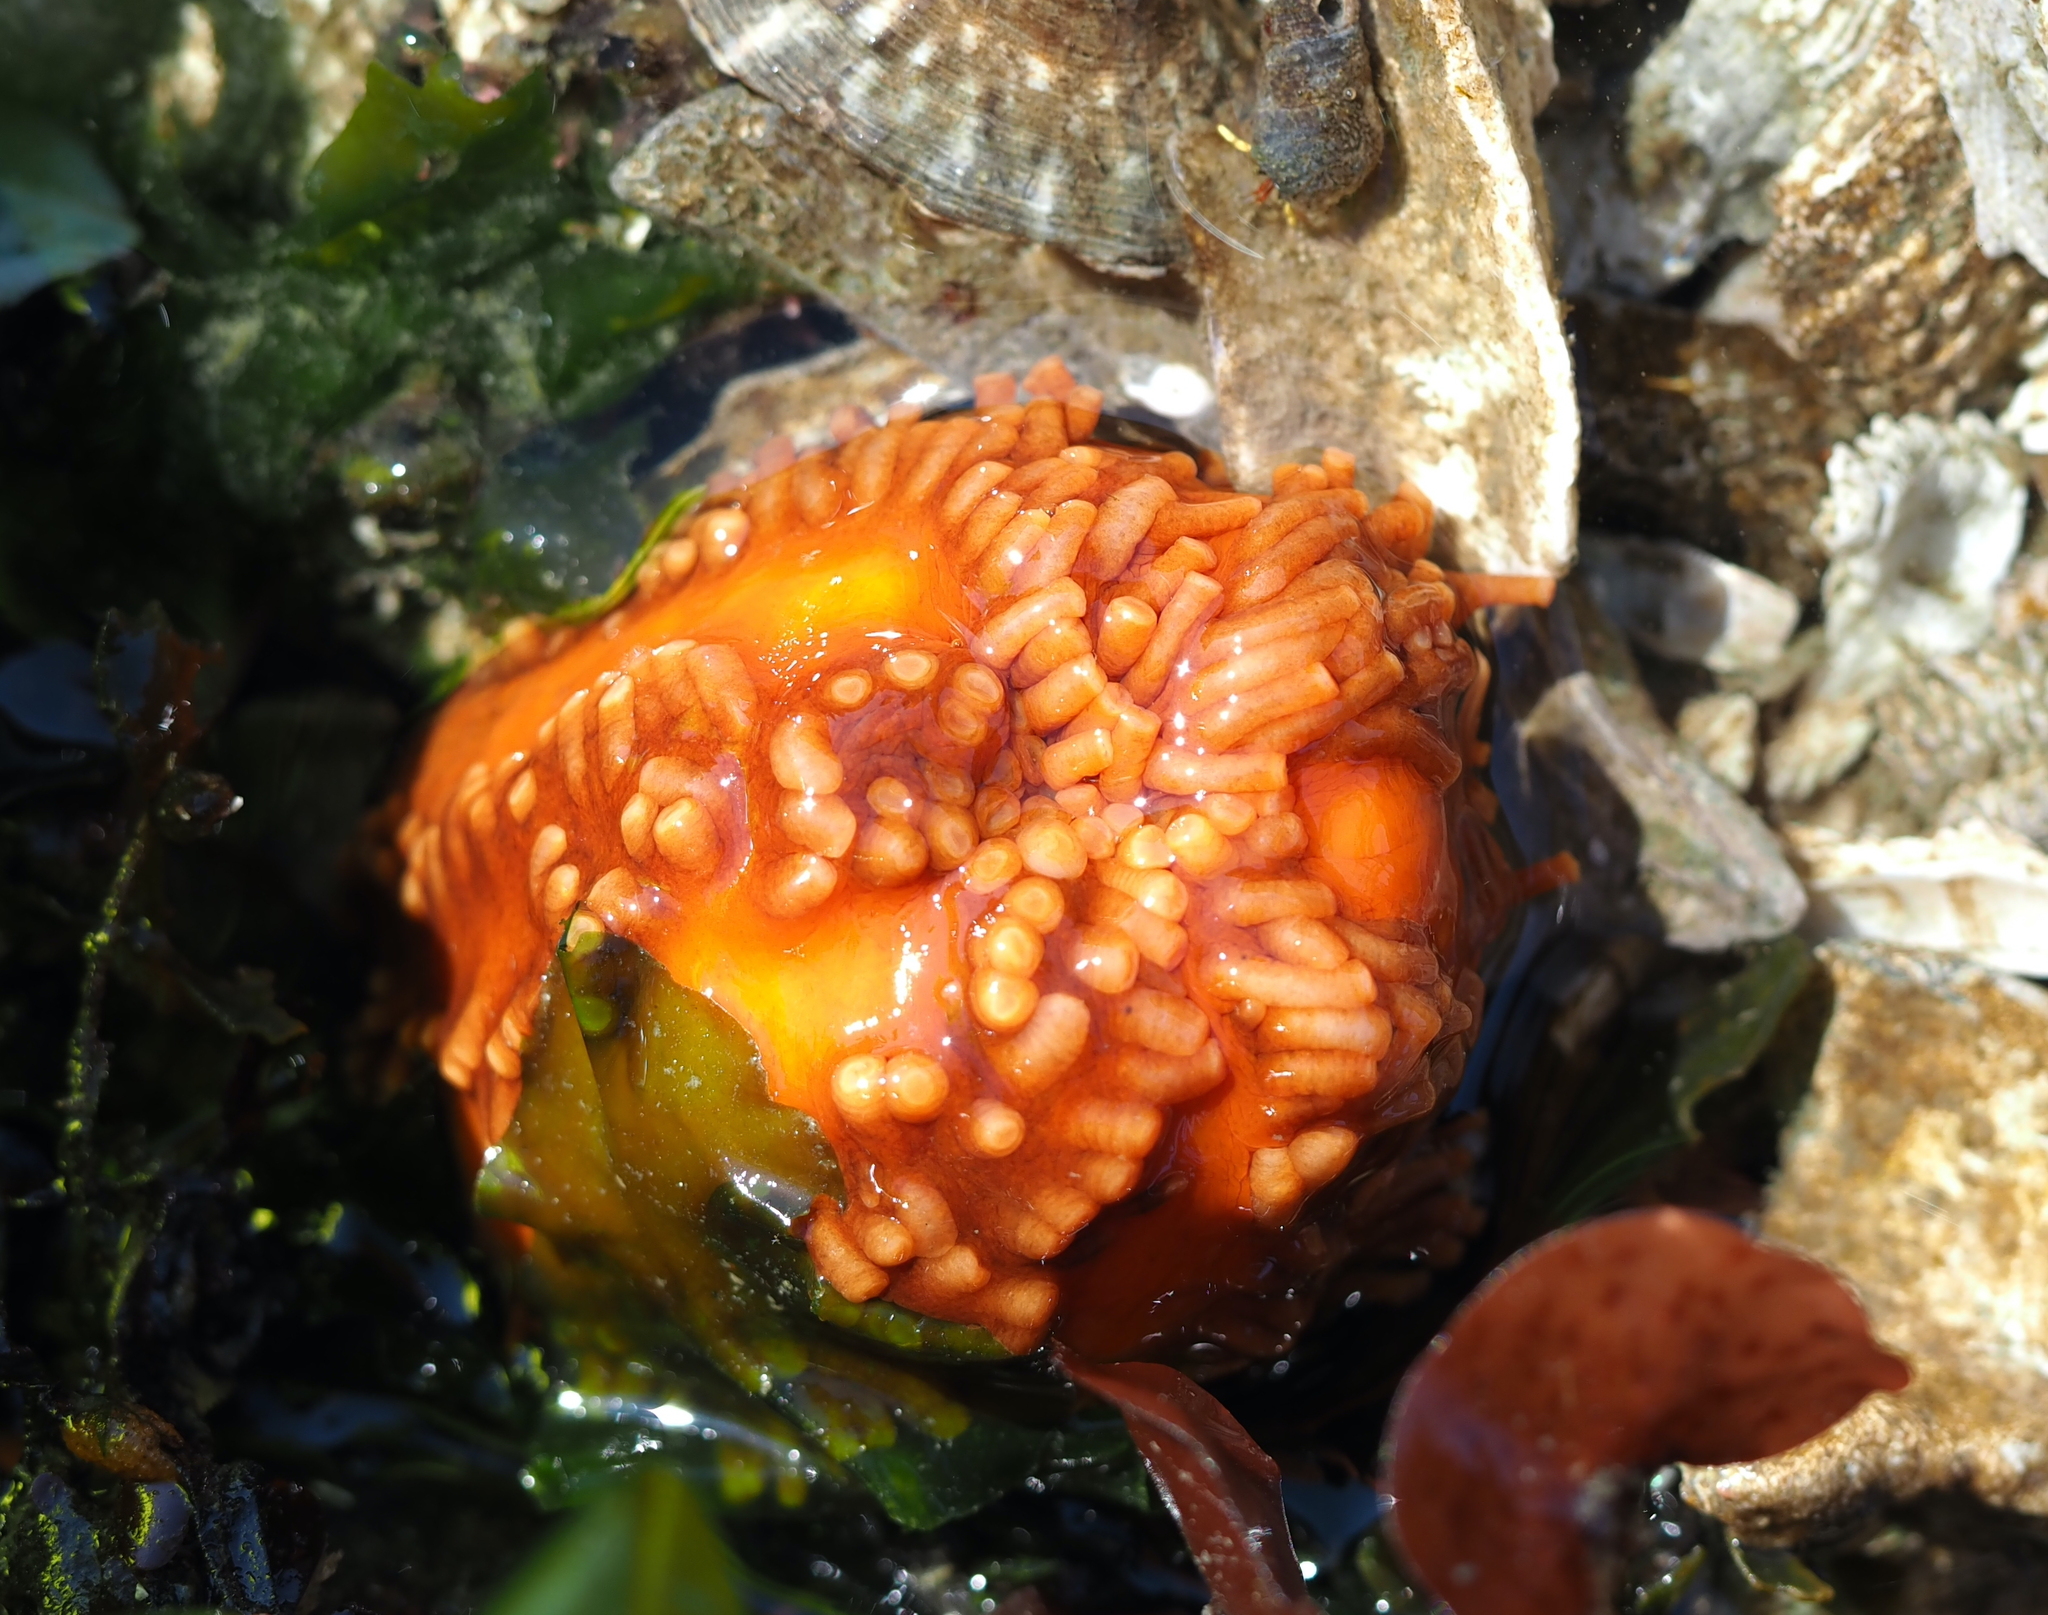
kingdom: Animalia
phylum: Echinodermata
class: Holothuroidea
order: Dendrochirotida
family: Cucumariidae
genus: Cucumaria
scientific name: Cucumaria miniata
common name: Orange sea cucumber
